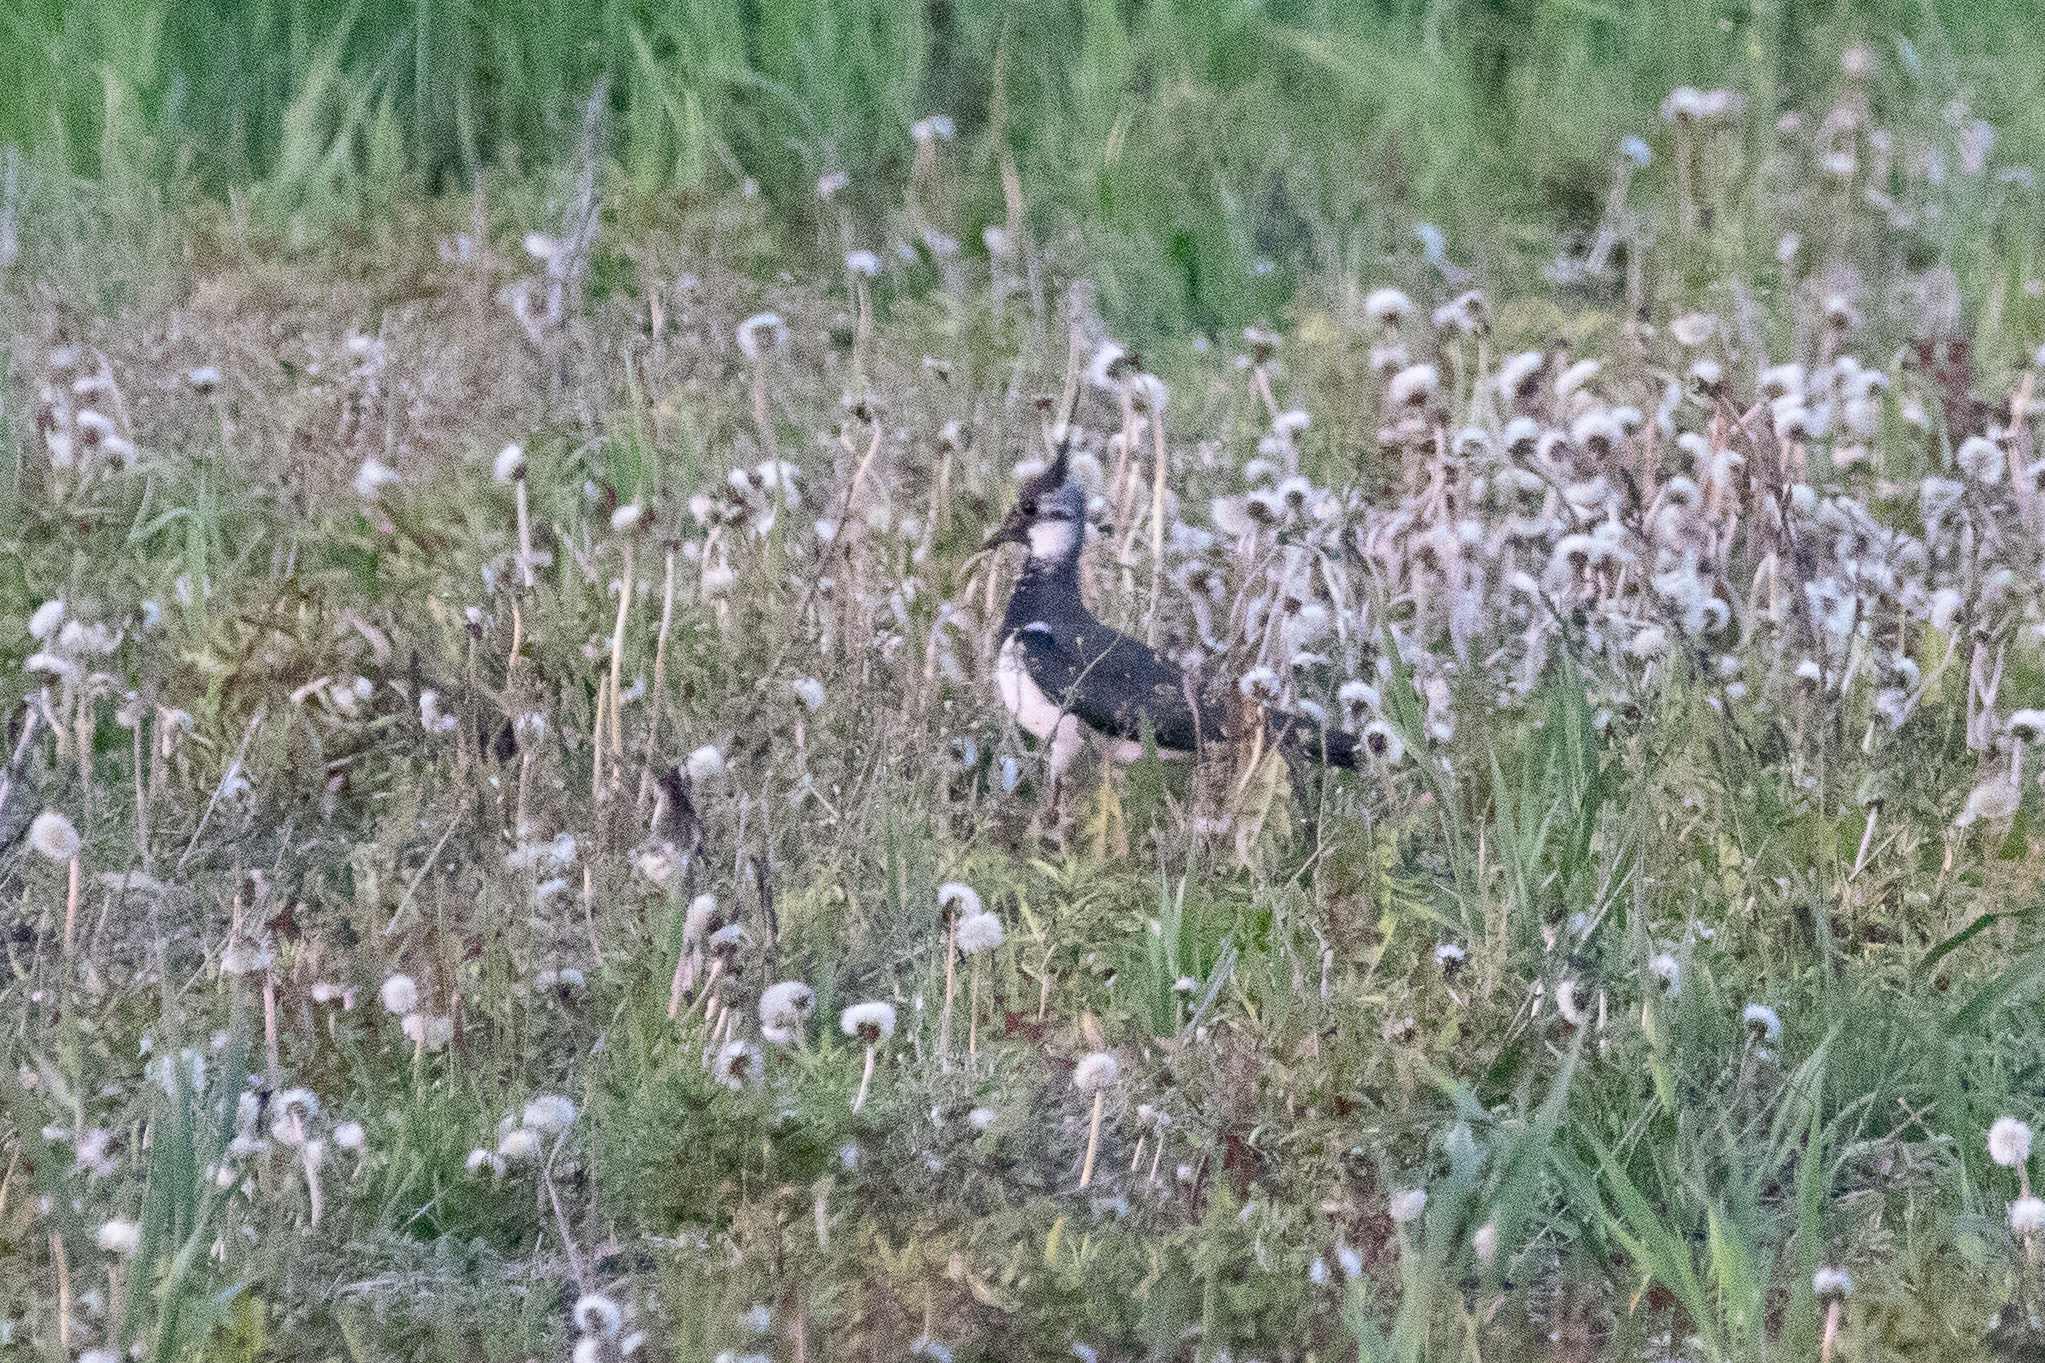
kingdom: Animalia
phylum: Chordata
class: Aves
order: Charadriiformes
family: Charadriidae
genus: Vanellus
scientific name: Vanellus vanellus
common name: Northern lapwing
